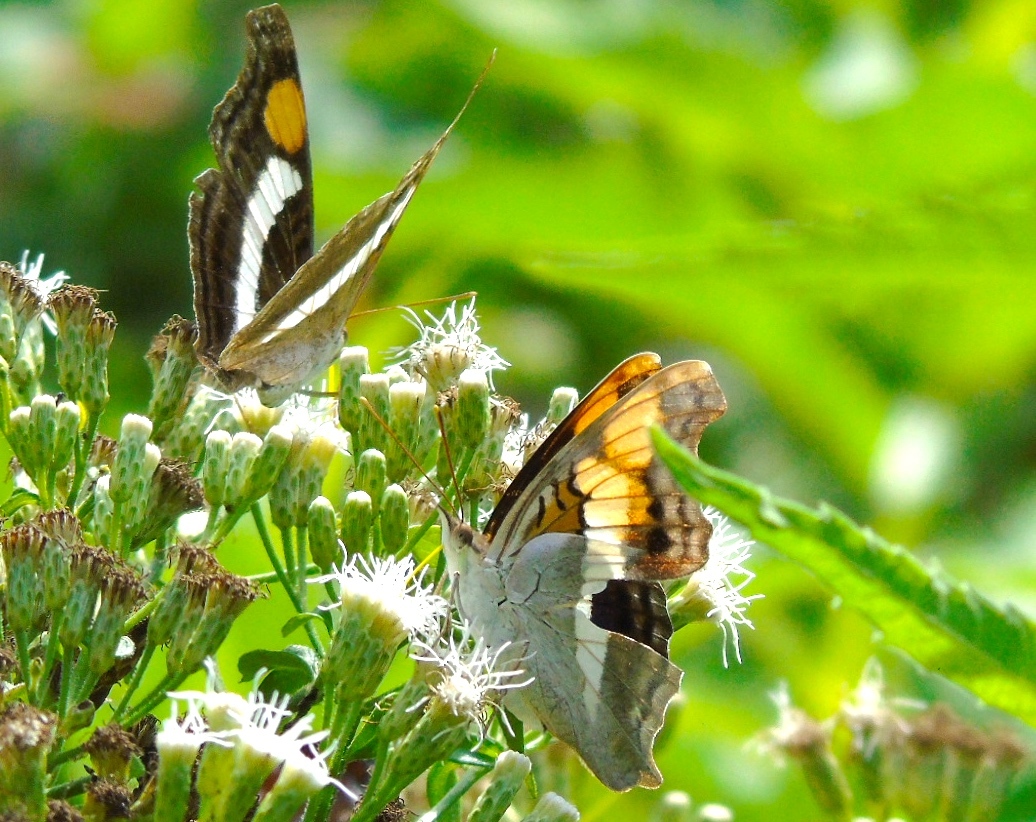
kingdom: Animalia
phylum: Arthropoda
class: Insecta
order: Lepidoptera
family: Nymphalidae
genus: Doxocopa
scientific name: Doxocopa laure
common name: Silver emperor
